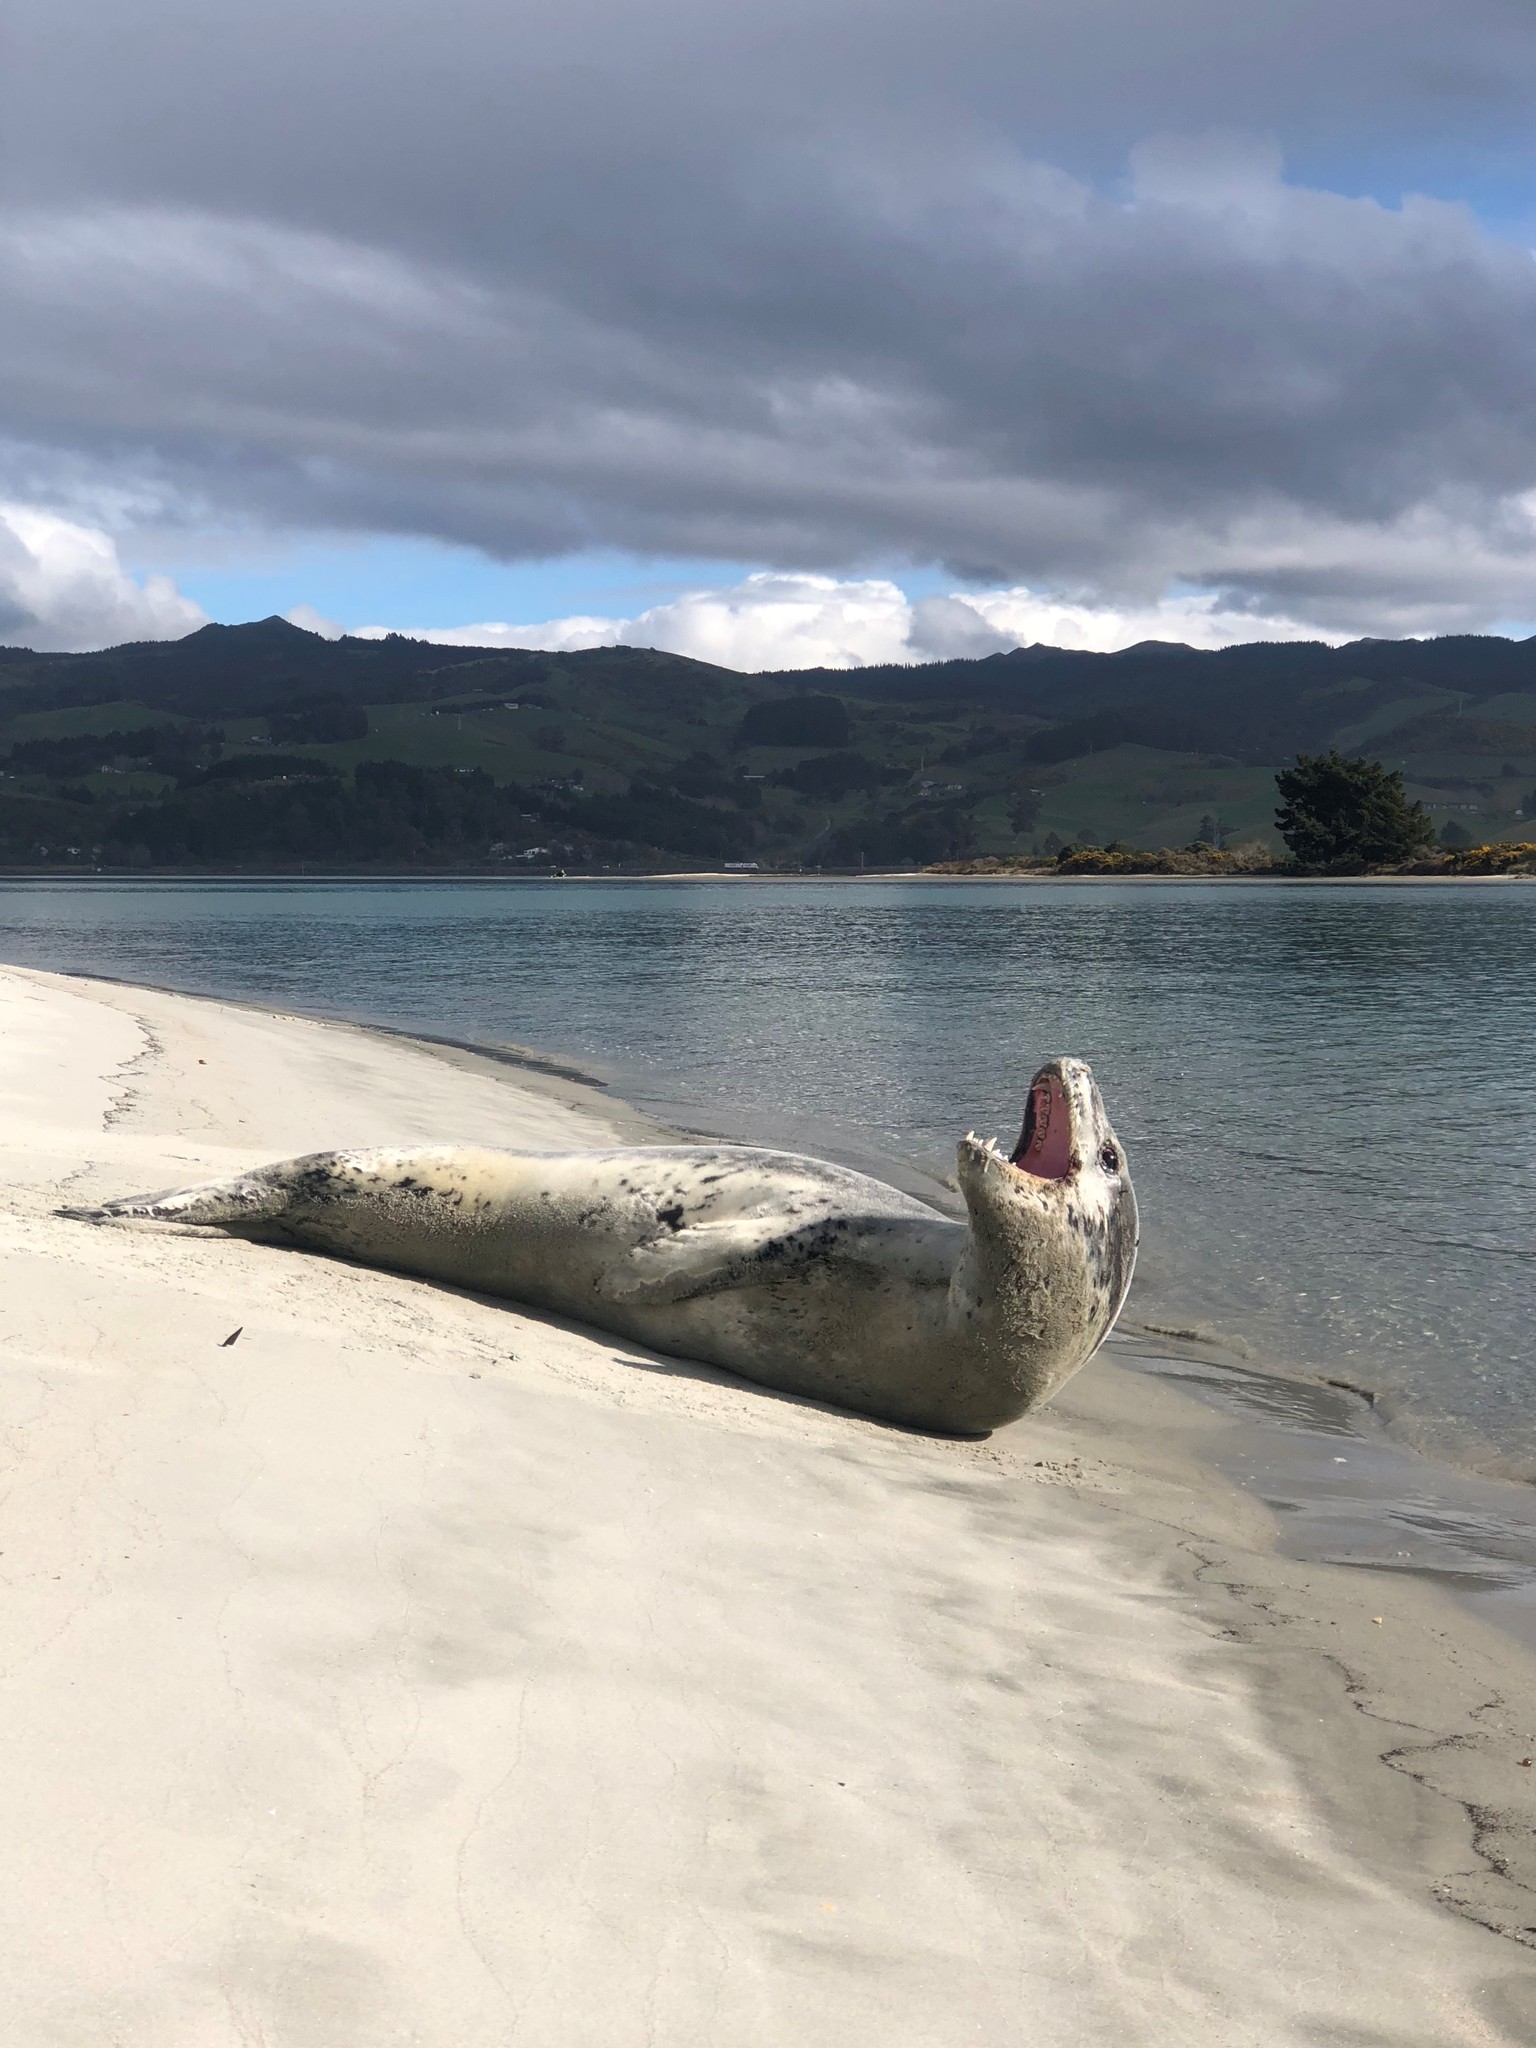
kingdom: Animalia
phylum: Chordata
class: Mammalia
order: Carnivora
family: Phocidae
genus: Hydrurga
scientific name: Hydrurga leptonyx
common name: Leopard seal
